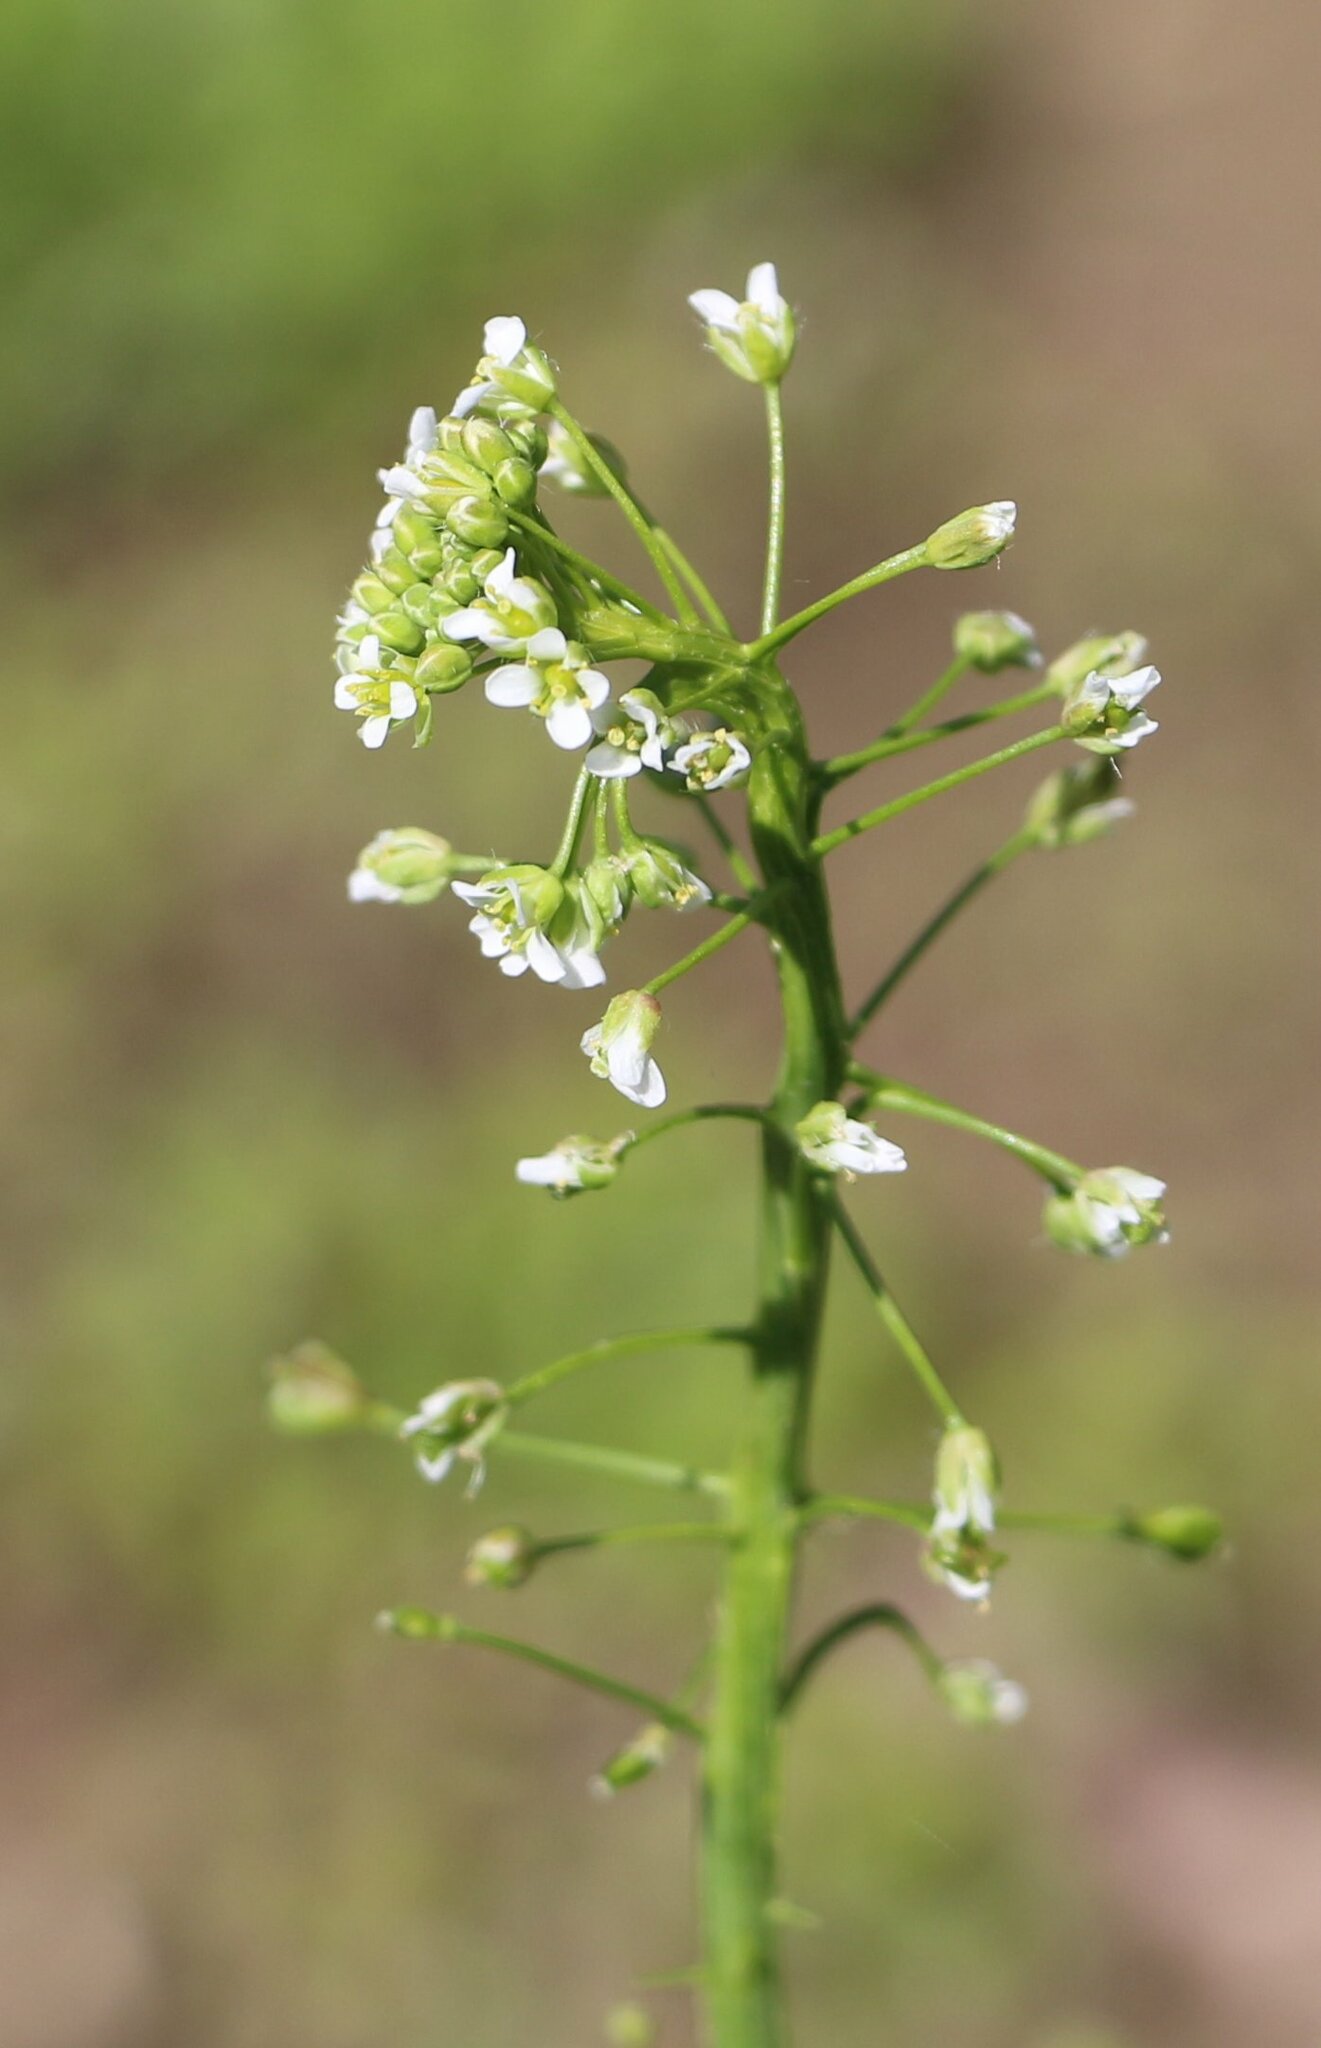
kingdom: Plantae
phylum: Tracheophyta
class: Magnoliopsida
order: Brassicales
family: Brassicaceae
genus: Capsella
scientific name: Capsella bursa-pastoris
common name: Shepherd's purse
